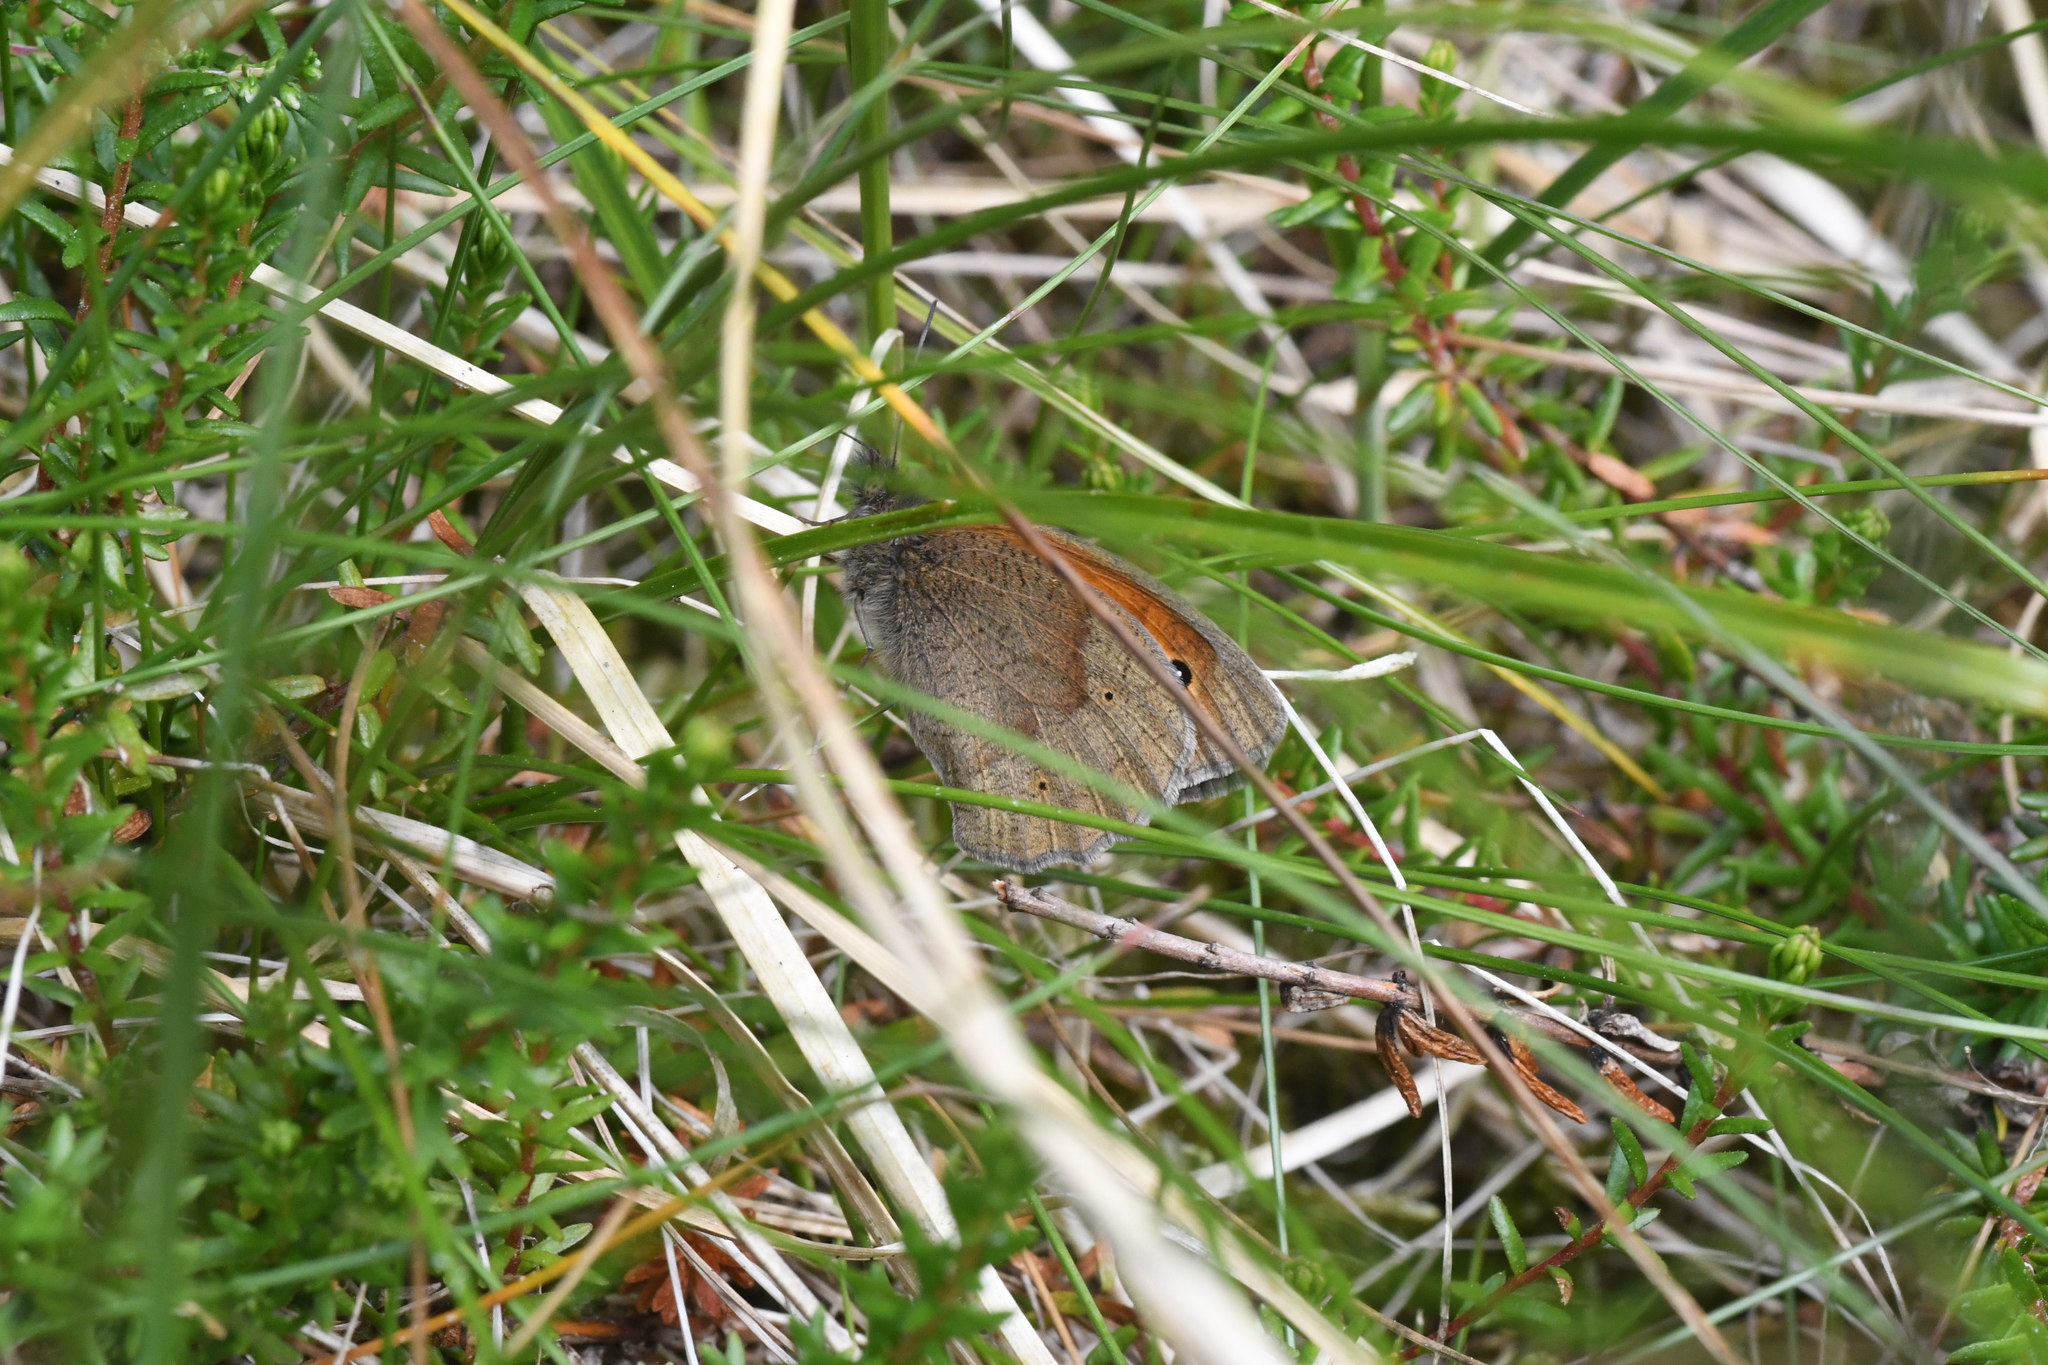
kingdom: Animalia
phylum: Arthropoda
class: Insecta
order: Lepidoptera
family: Nymphalidae
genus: Maniola
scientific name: Maniola jurtina
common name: Meadow brown
